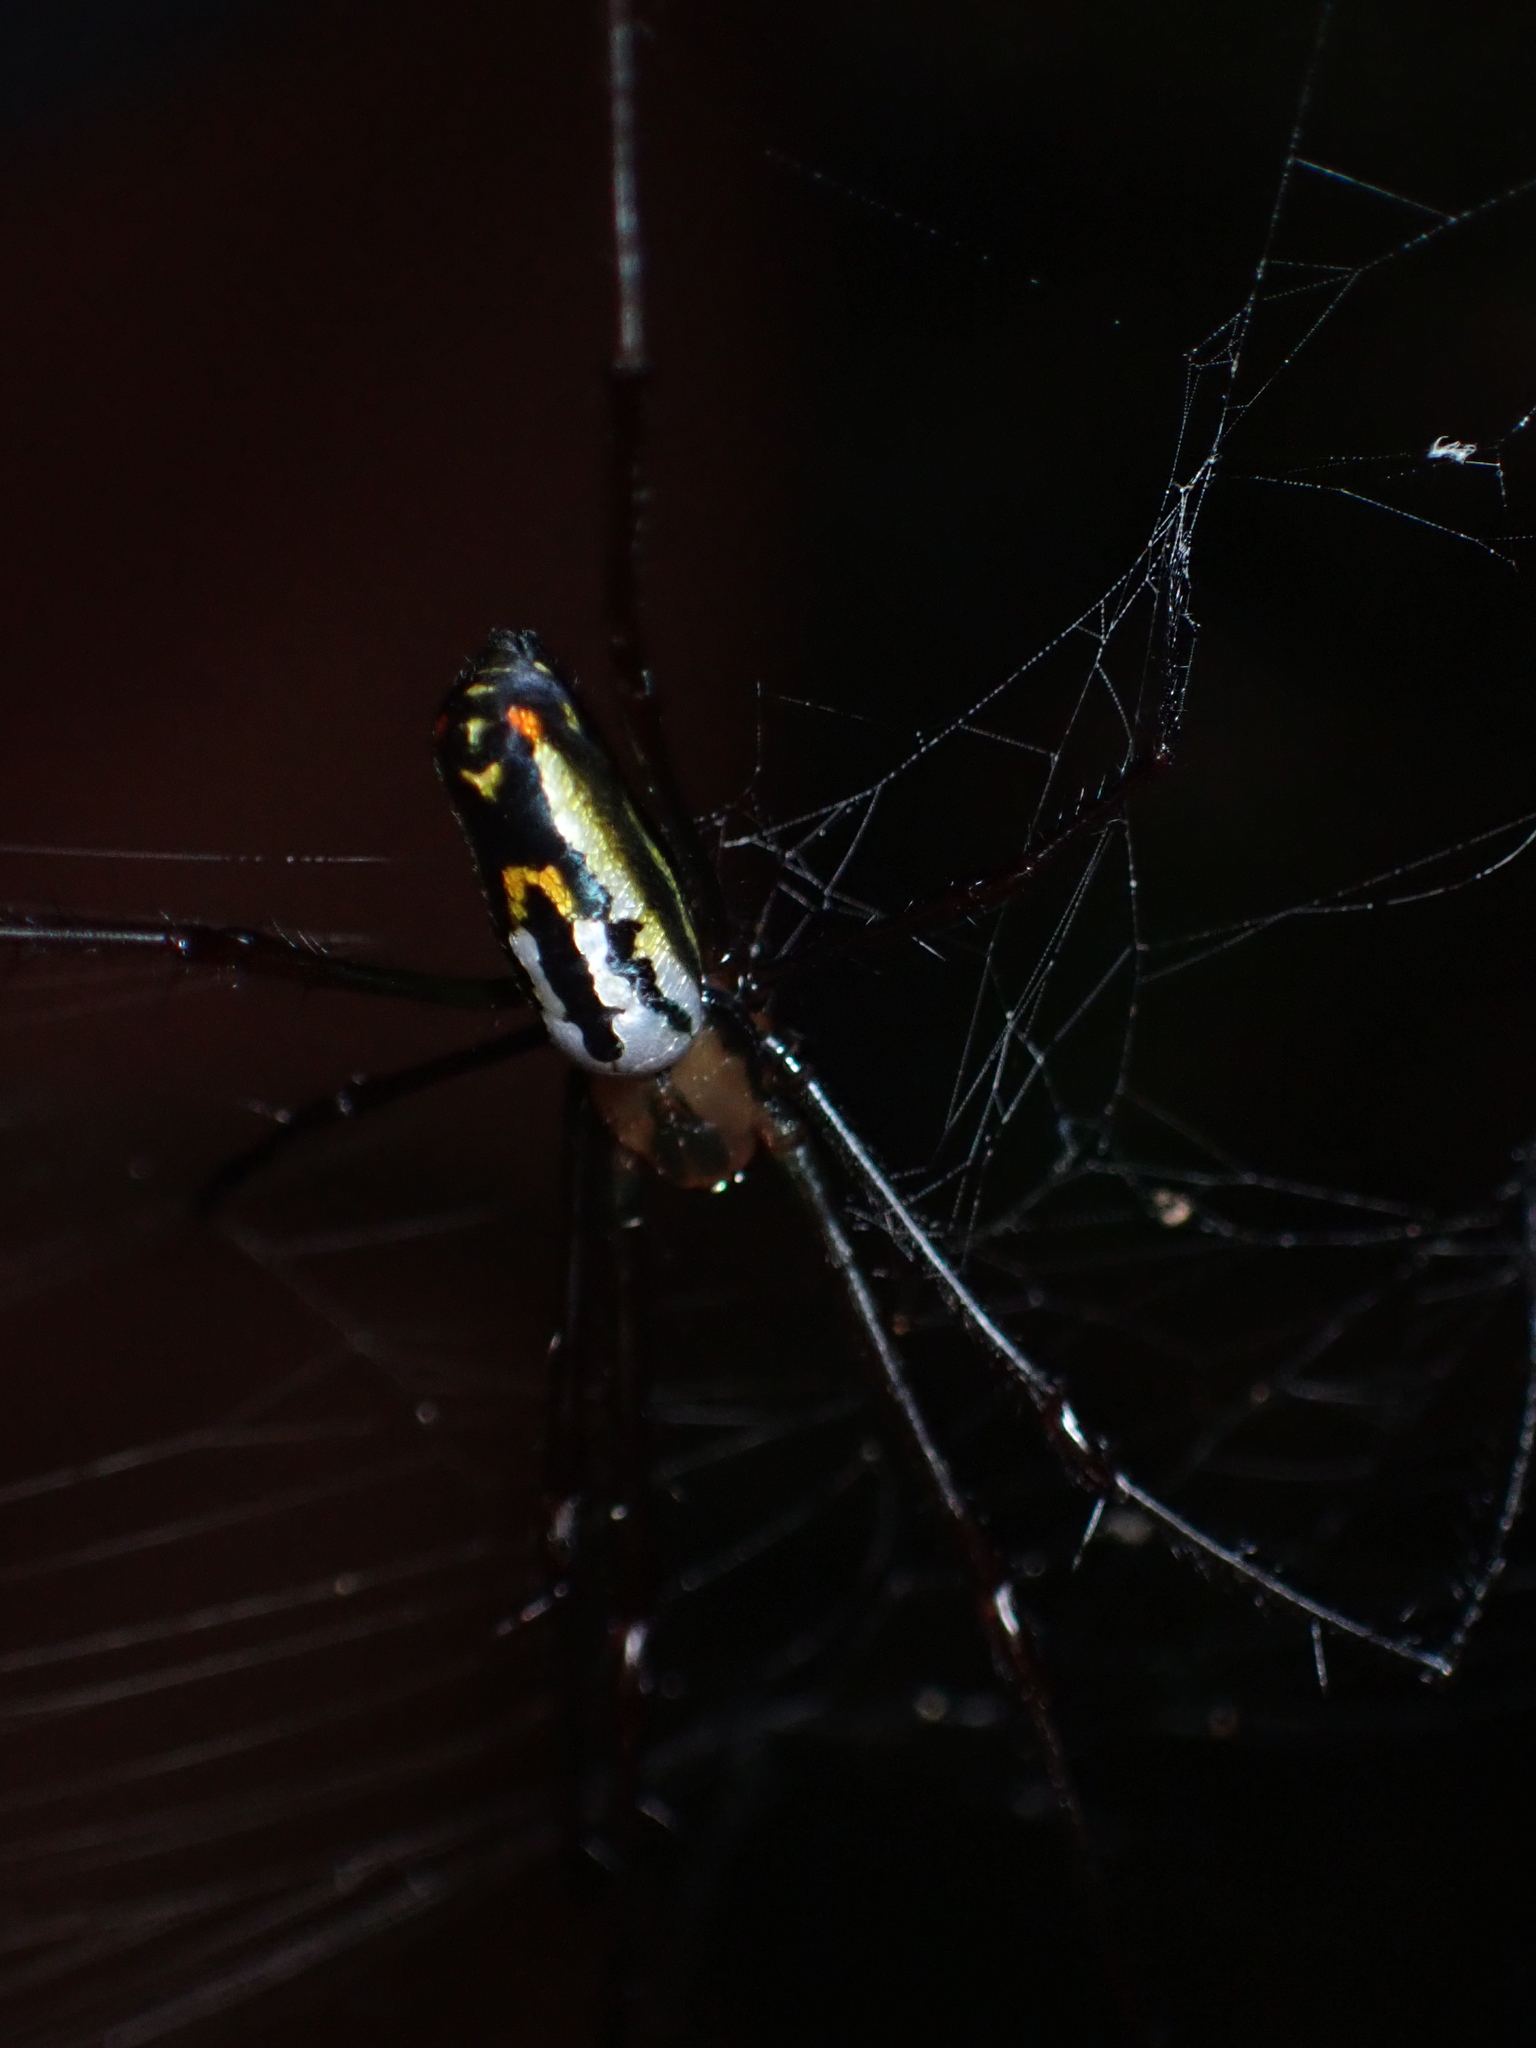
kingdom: Animalia
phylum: Arthropoda
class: Arachnida
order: Araneae
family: Tetragnathidae
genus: Leucauge
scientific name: Leucauge hebridisiana
